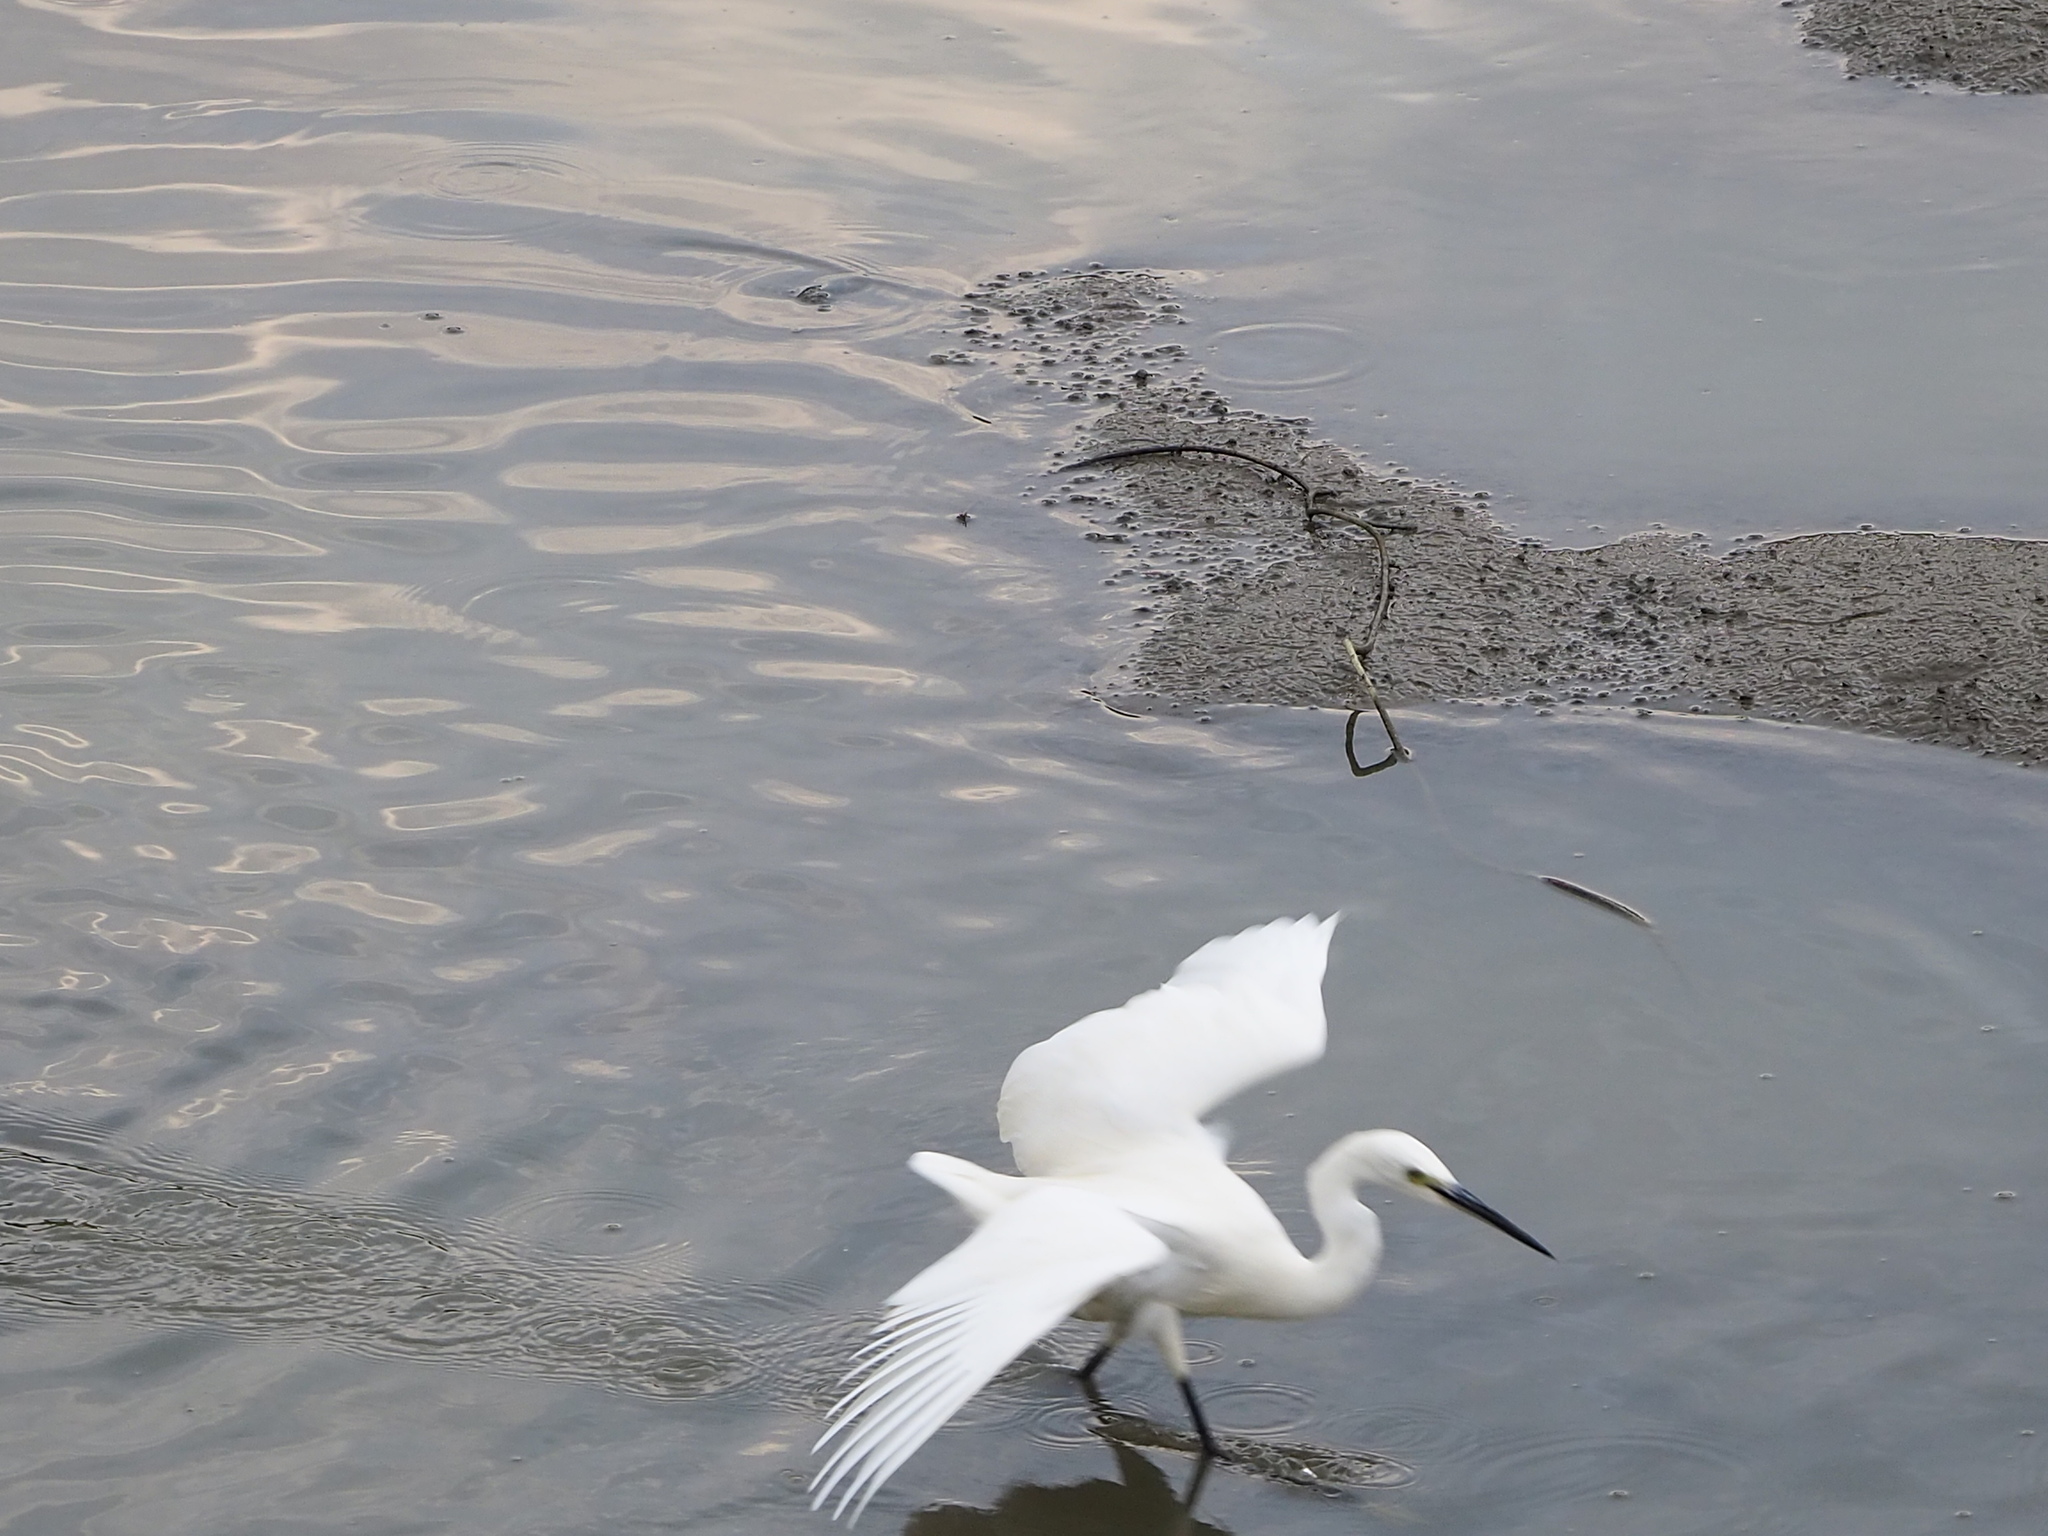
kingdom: Animalia
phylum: Chordata
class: Aves
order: Pelecaniformes
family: Ardeidae
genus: Egretta
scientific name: Egretta garzetta
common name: Little egret
